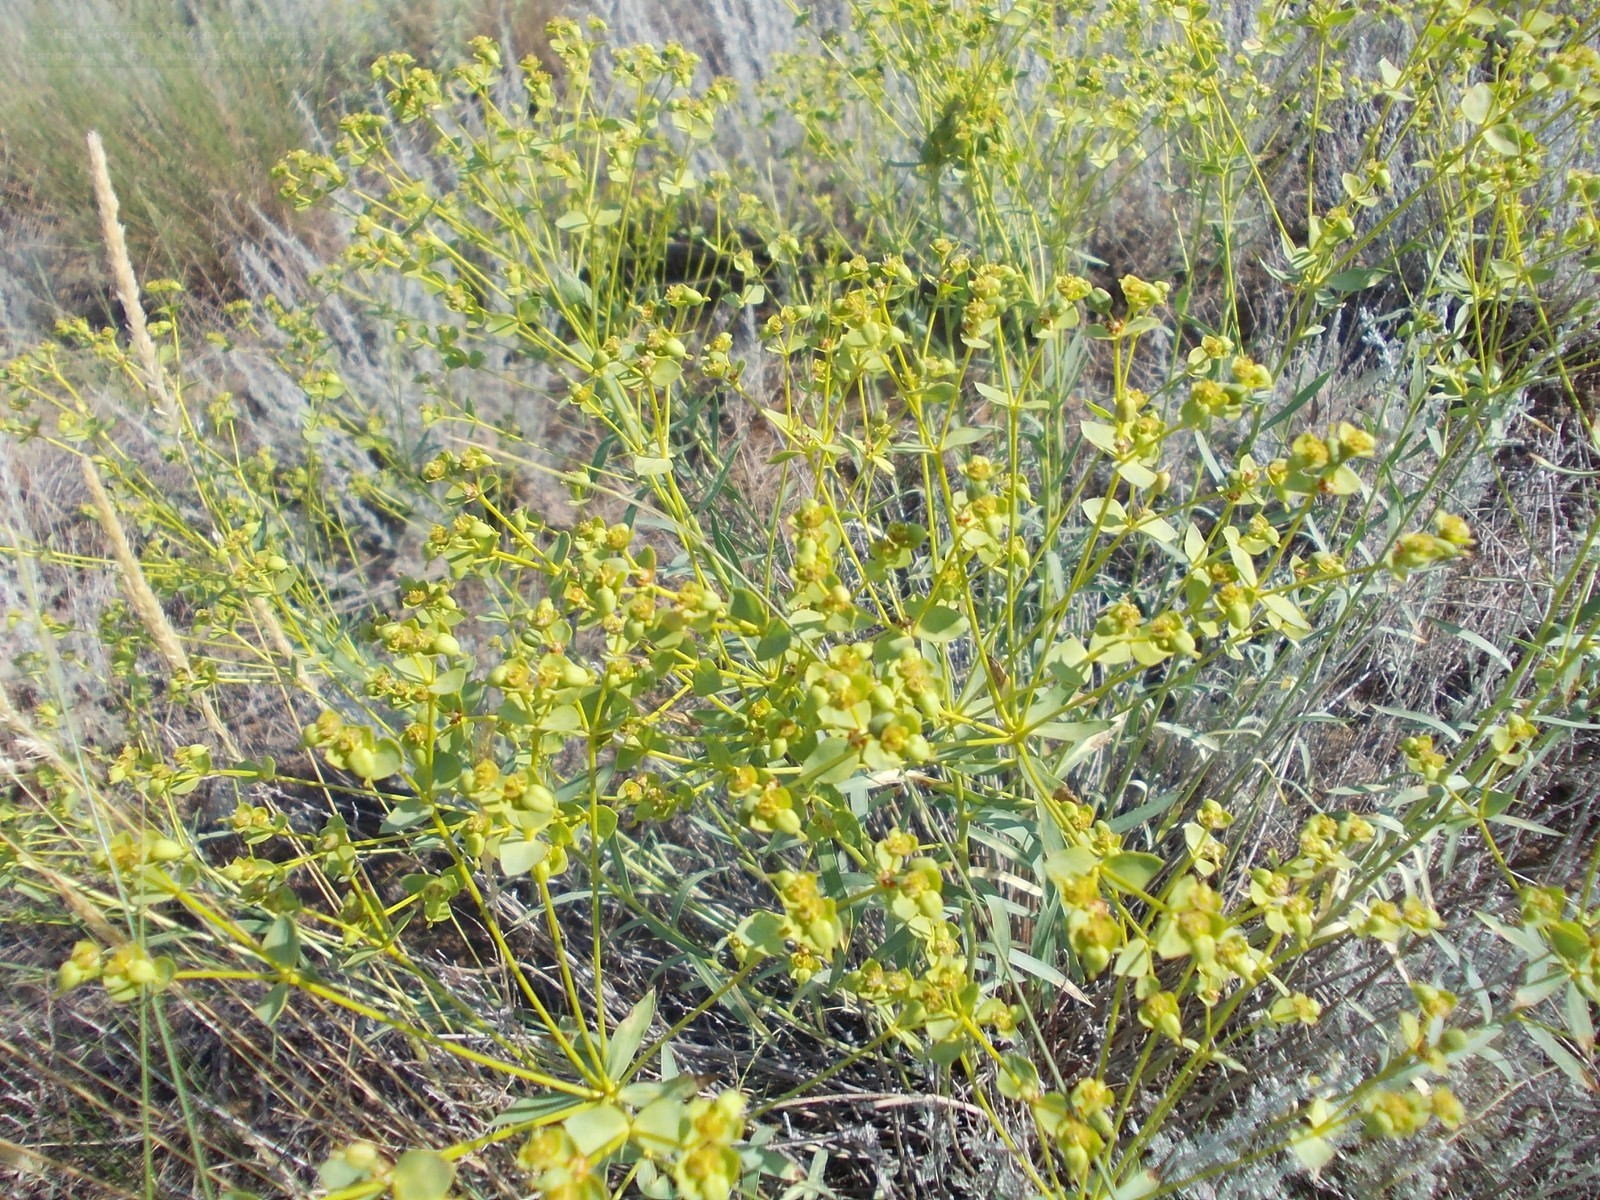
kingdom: Plantae
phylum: Tracheophyta
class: Magnoliopsida
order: Malpighiales
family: Euphorbiaceae
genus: Euphorbia
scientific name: Euphorbia seguieriana
